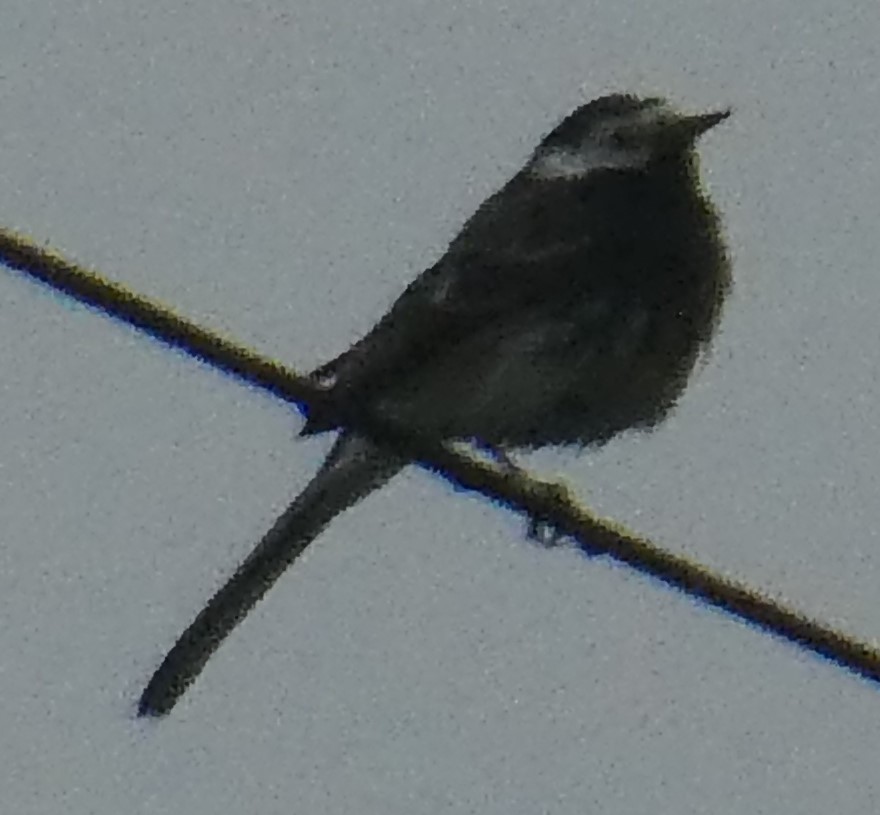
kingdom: Animalia
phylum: Chordata
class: Aves
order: Passeriformes
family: Motacillidae
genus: Motacilla
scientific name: Motacilla alba
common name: White wagtail
